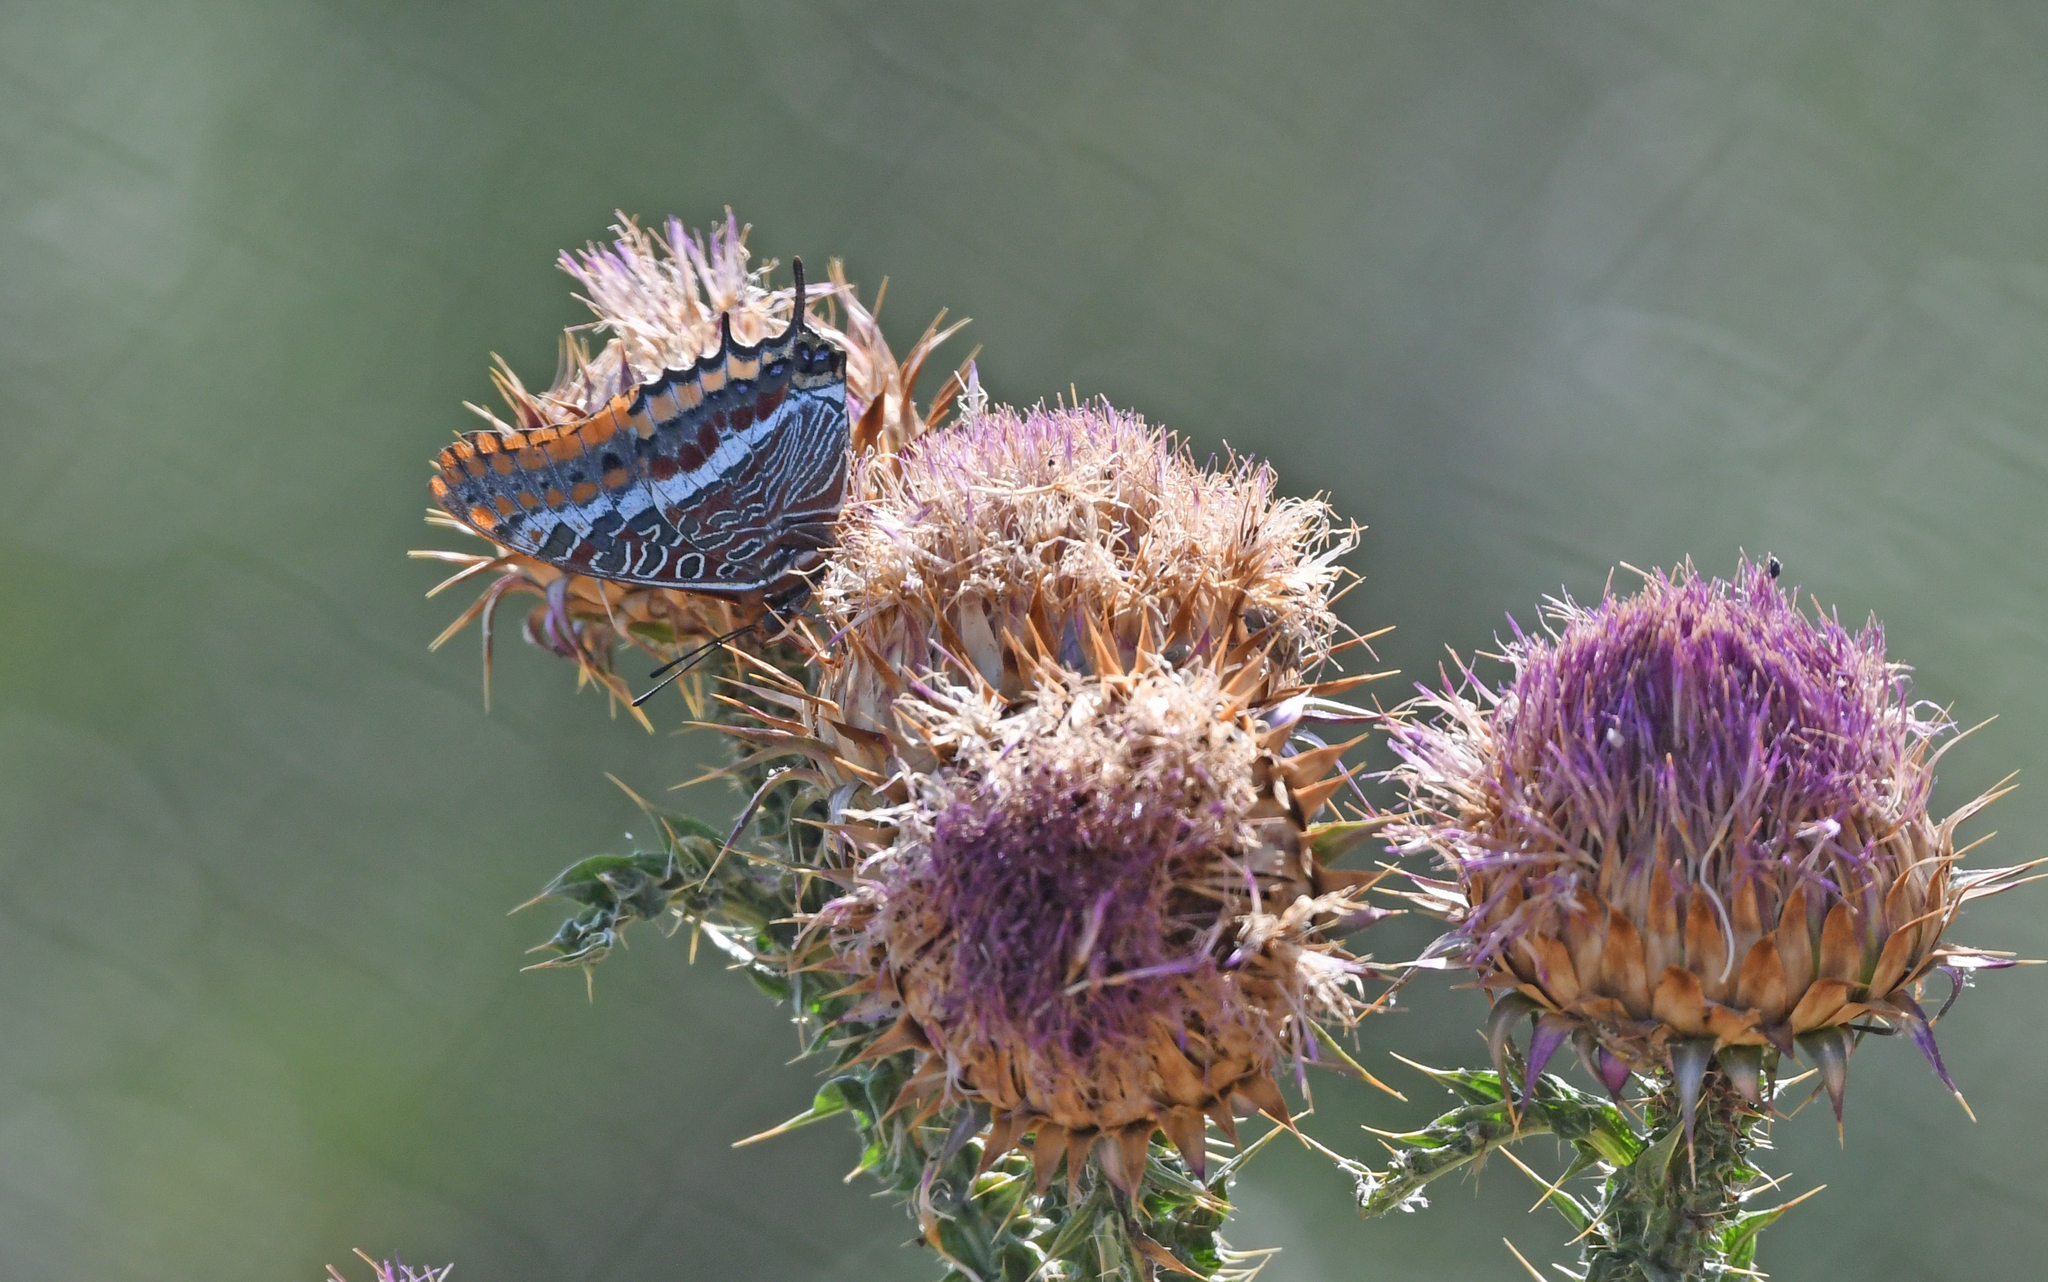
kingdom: Animalia
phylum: Arthropoda
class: Insecta
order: Lepidoptera
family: Nymphalidae
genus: Charaxes
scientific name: Charaxes jasius
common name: Two tailed pasha
